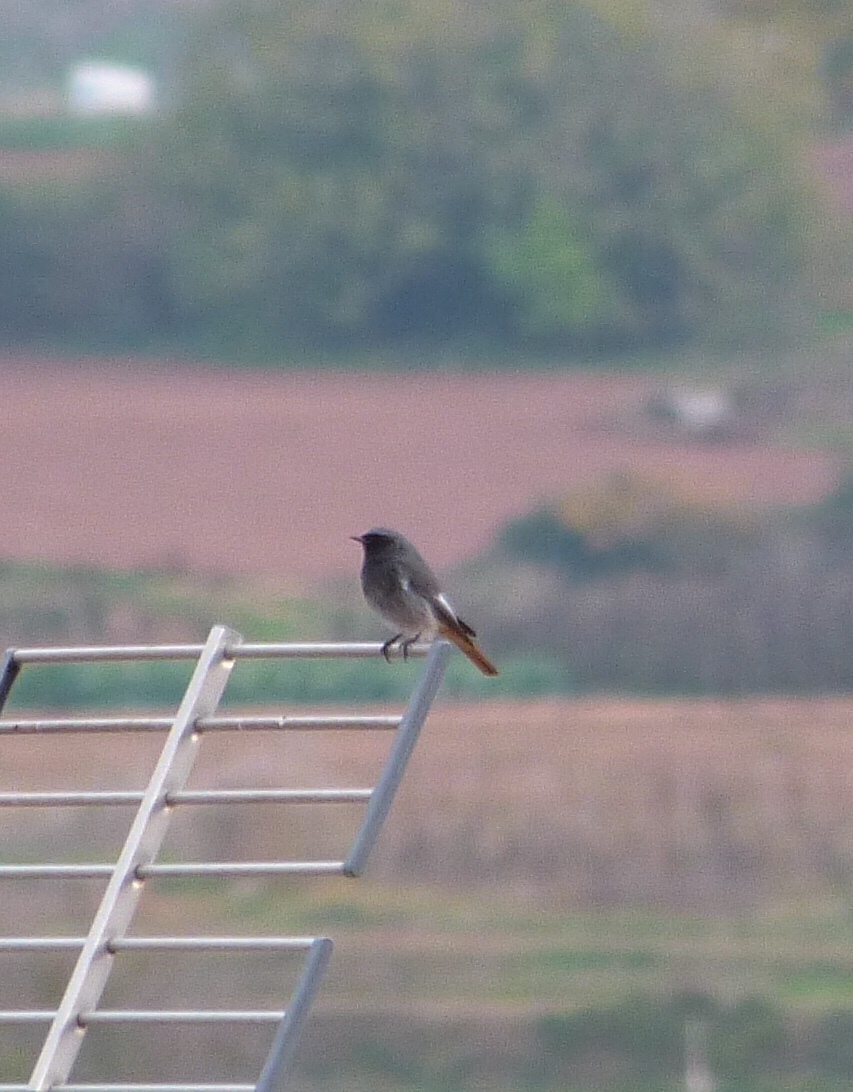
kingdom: Animalia
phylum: Chordata
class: Aves
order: Passeriformes
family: Muscicapidae
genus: Phoenicurus
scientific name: Phoenicurus ochruros
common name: Black redstart
